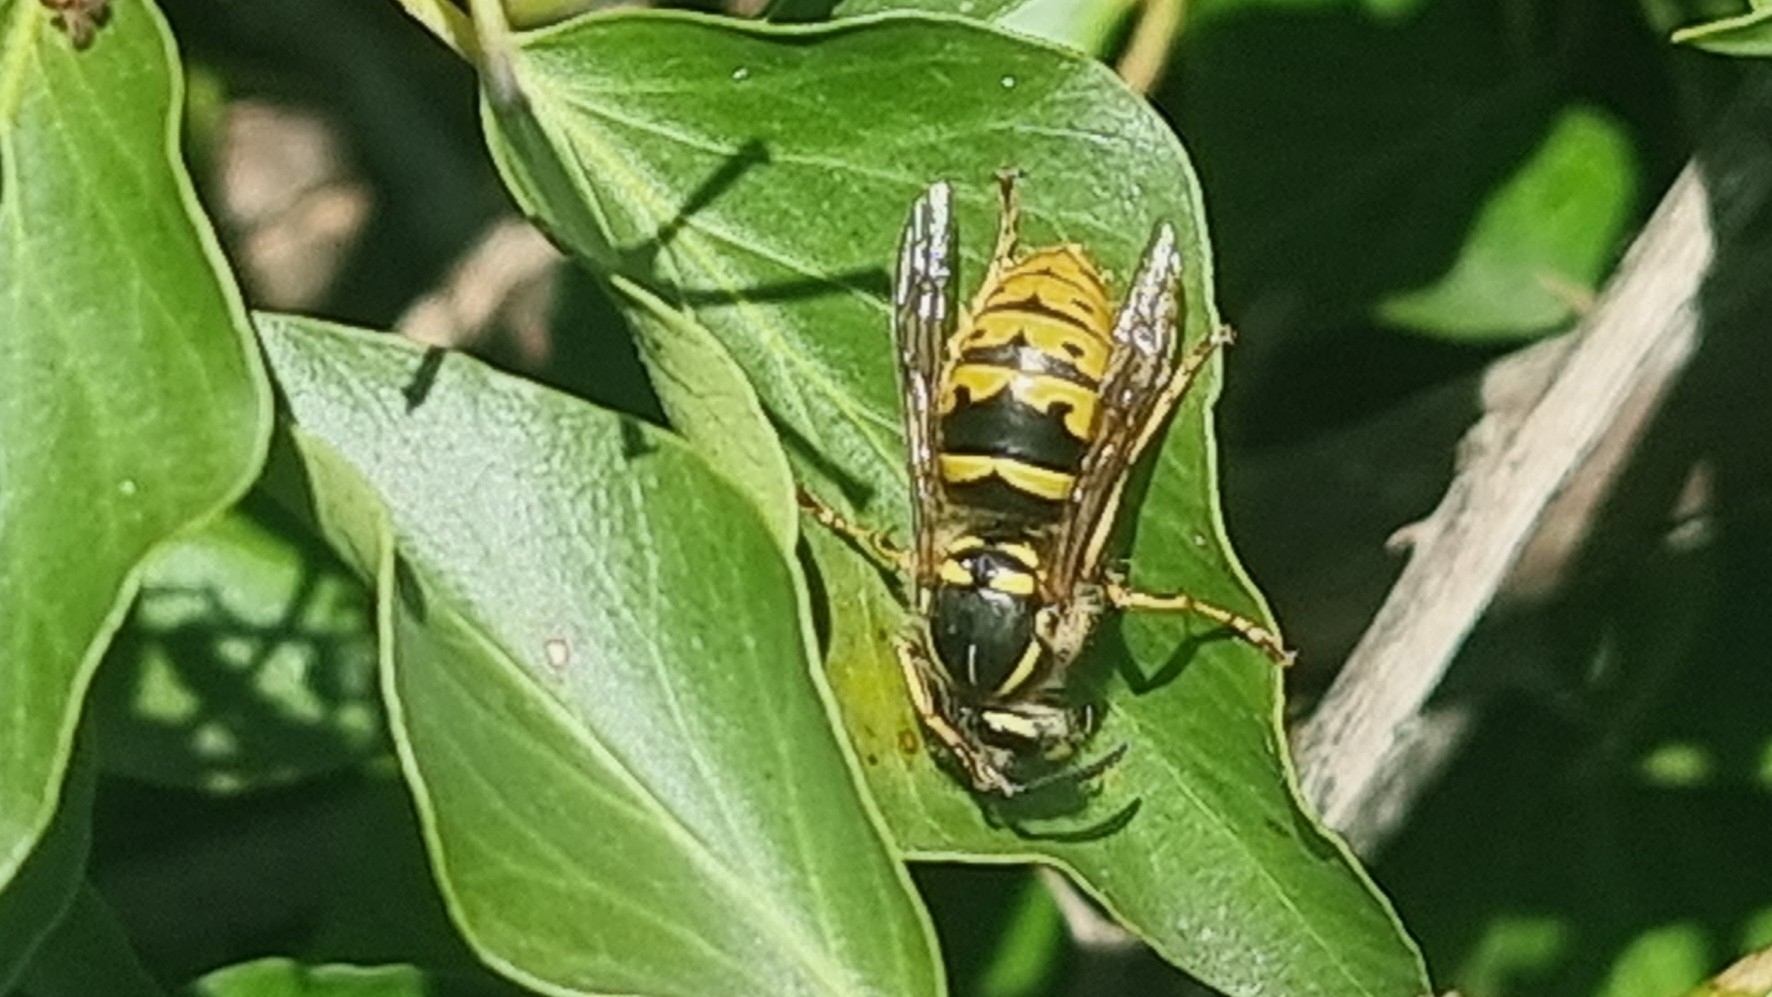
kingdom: Animalia
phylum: Arthropoda
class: Insecta
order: Hymenoptera
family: Vespidae
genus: Vespula
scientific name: Vespula vulgaris
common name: Common wasp
